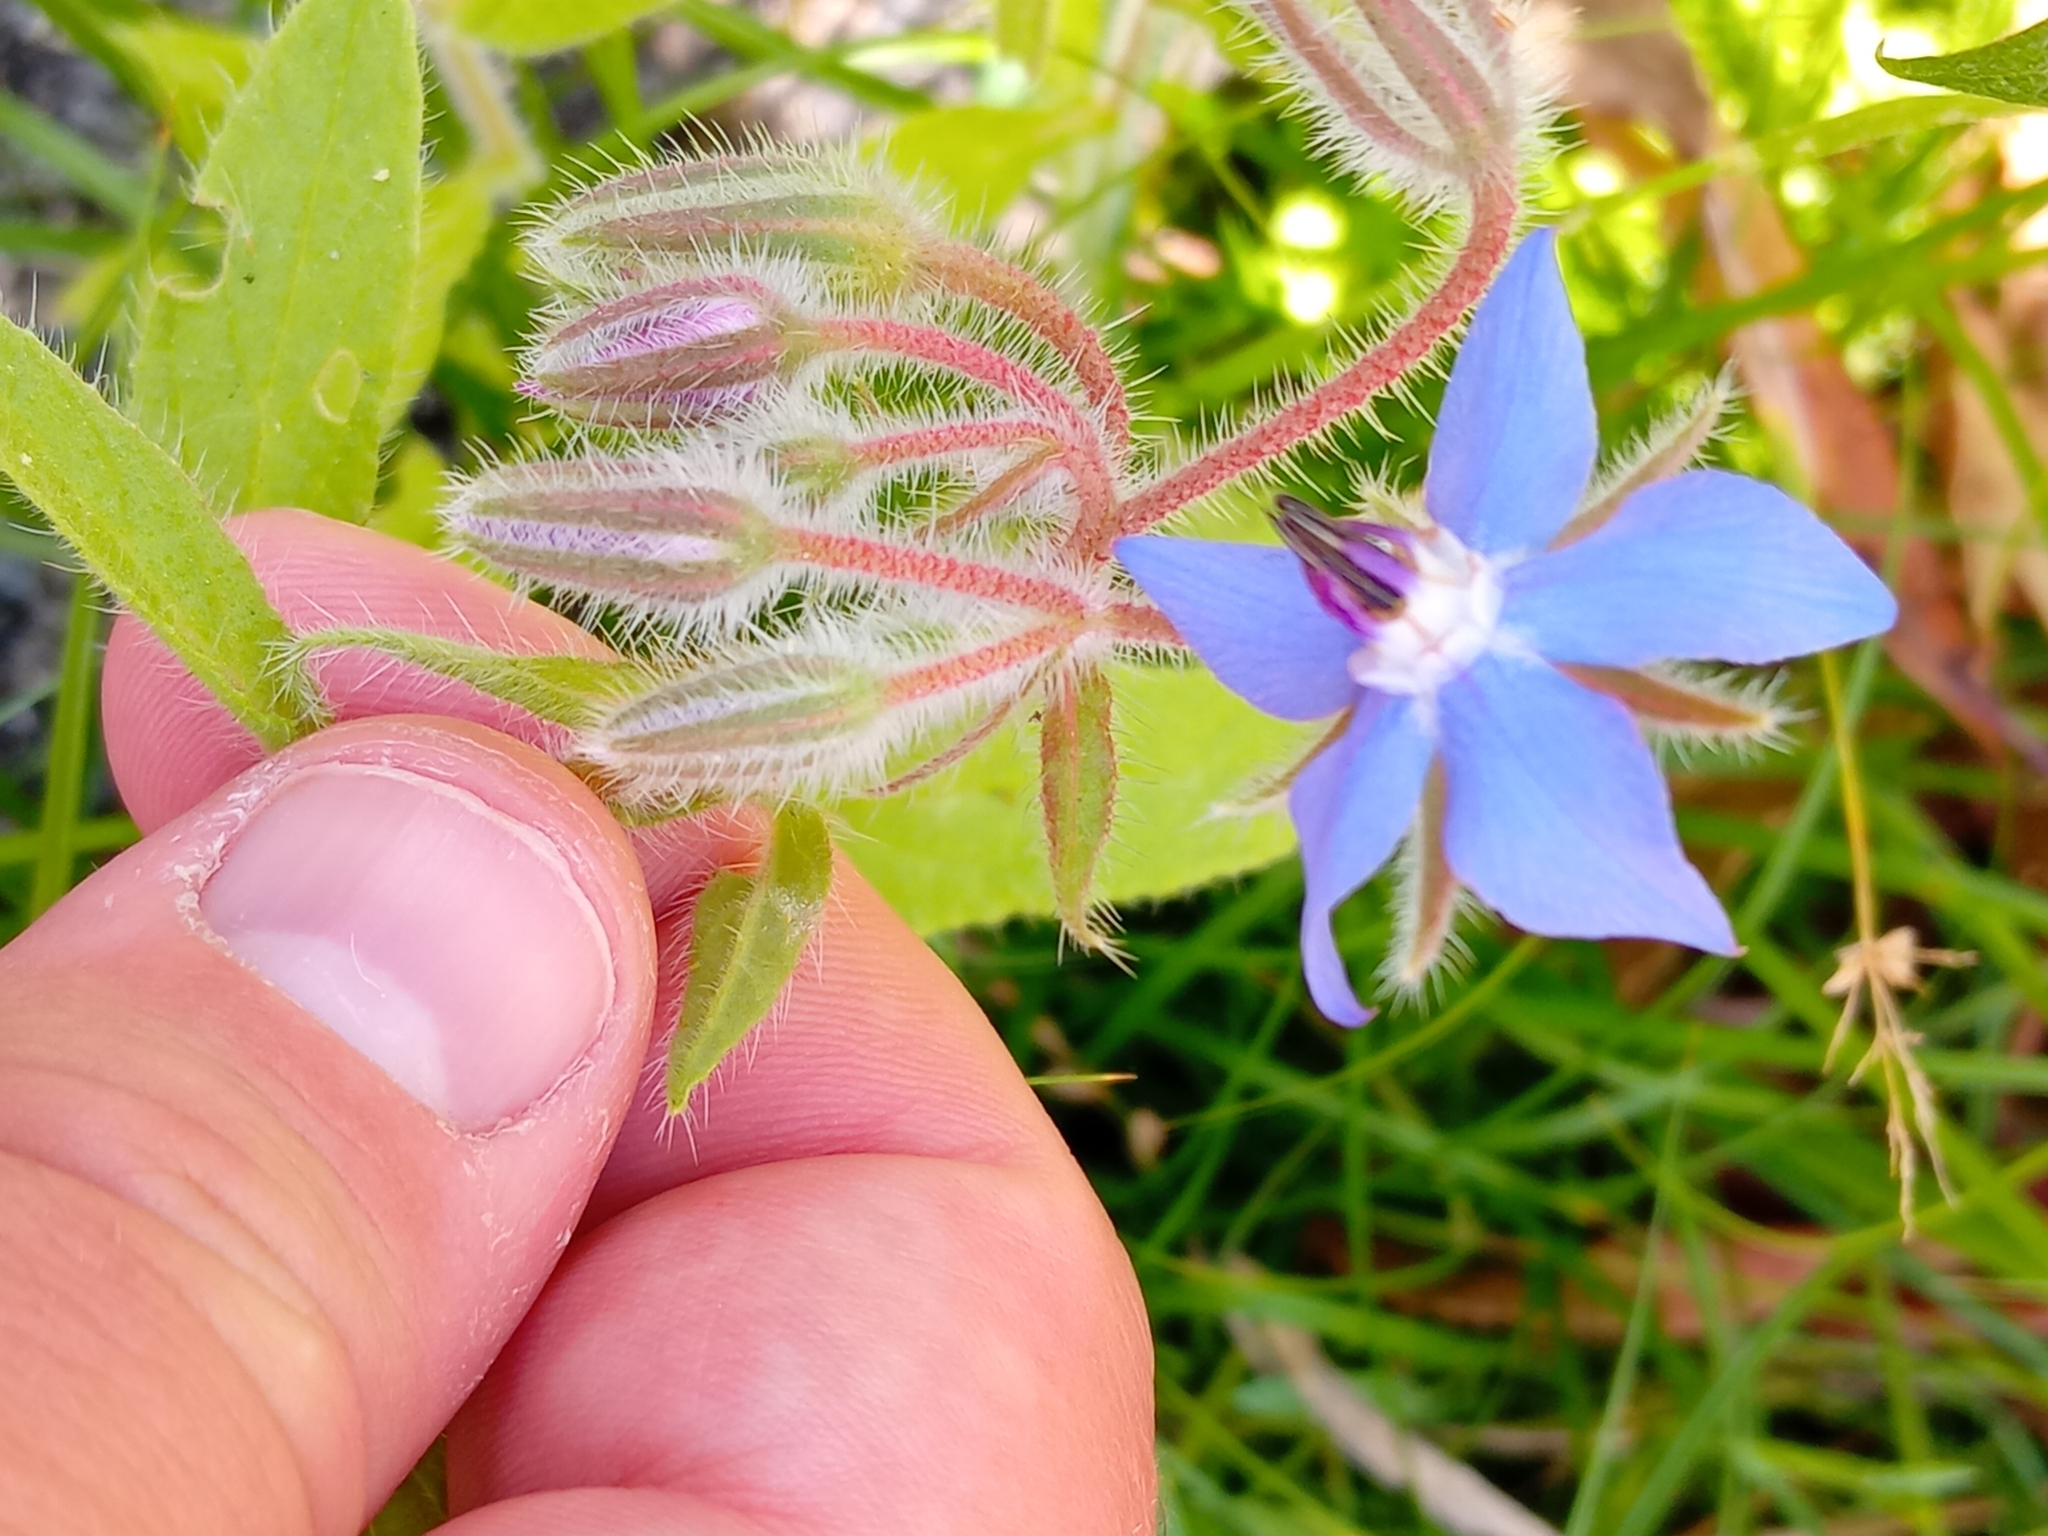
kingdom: Plantae
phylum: Tracheophyta
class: Magnoliopsida
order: Boraginales
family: Boraginaceae
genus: Borago
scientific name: Borago officinalis
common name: Borage
